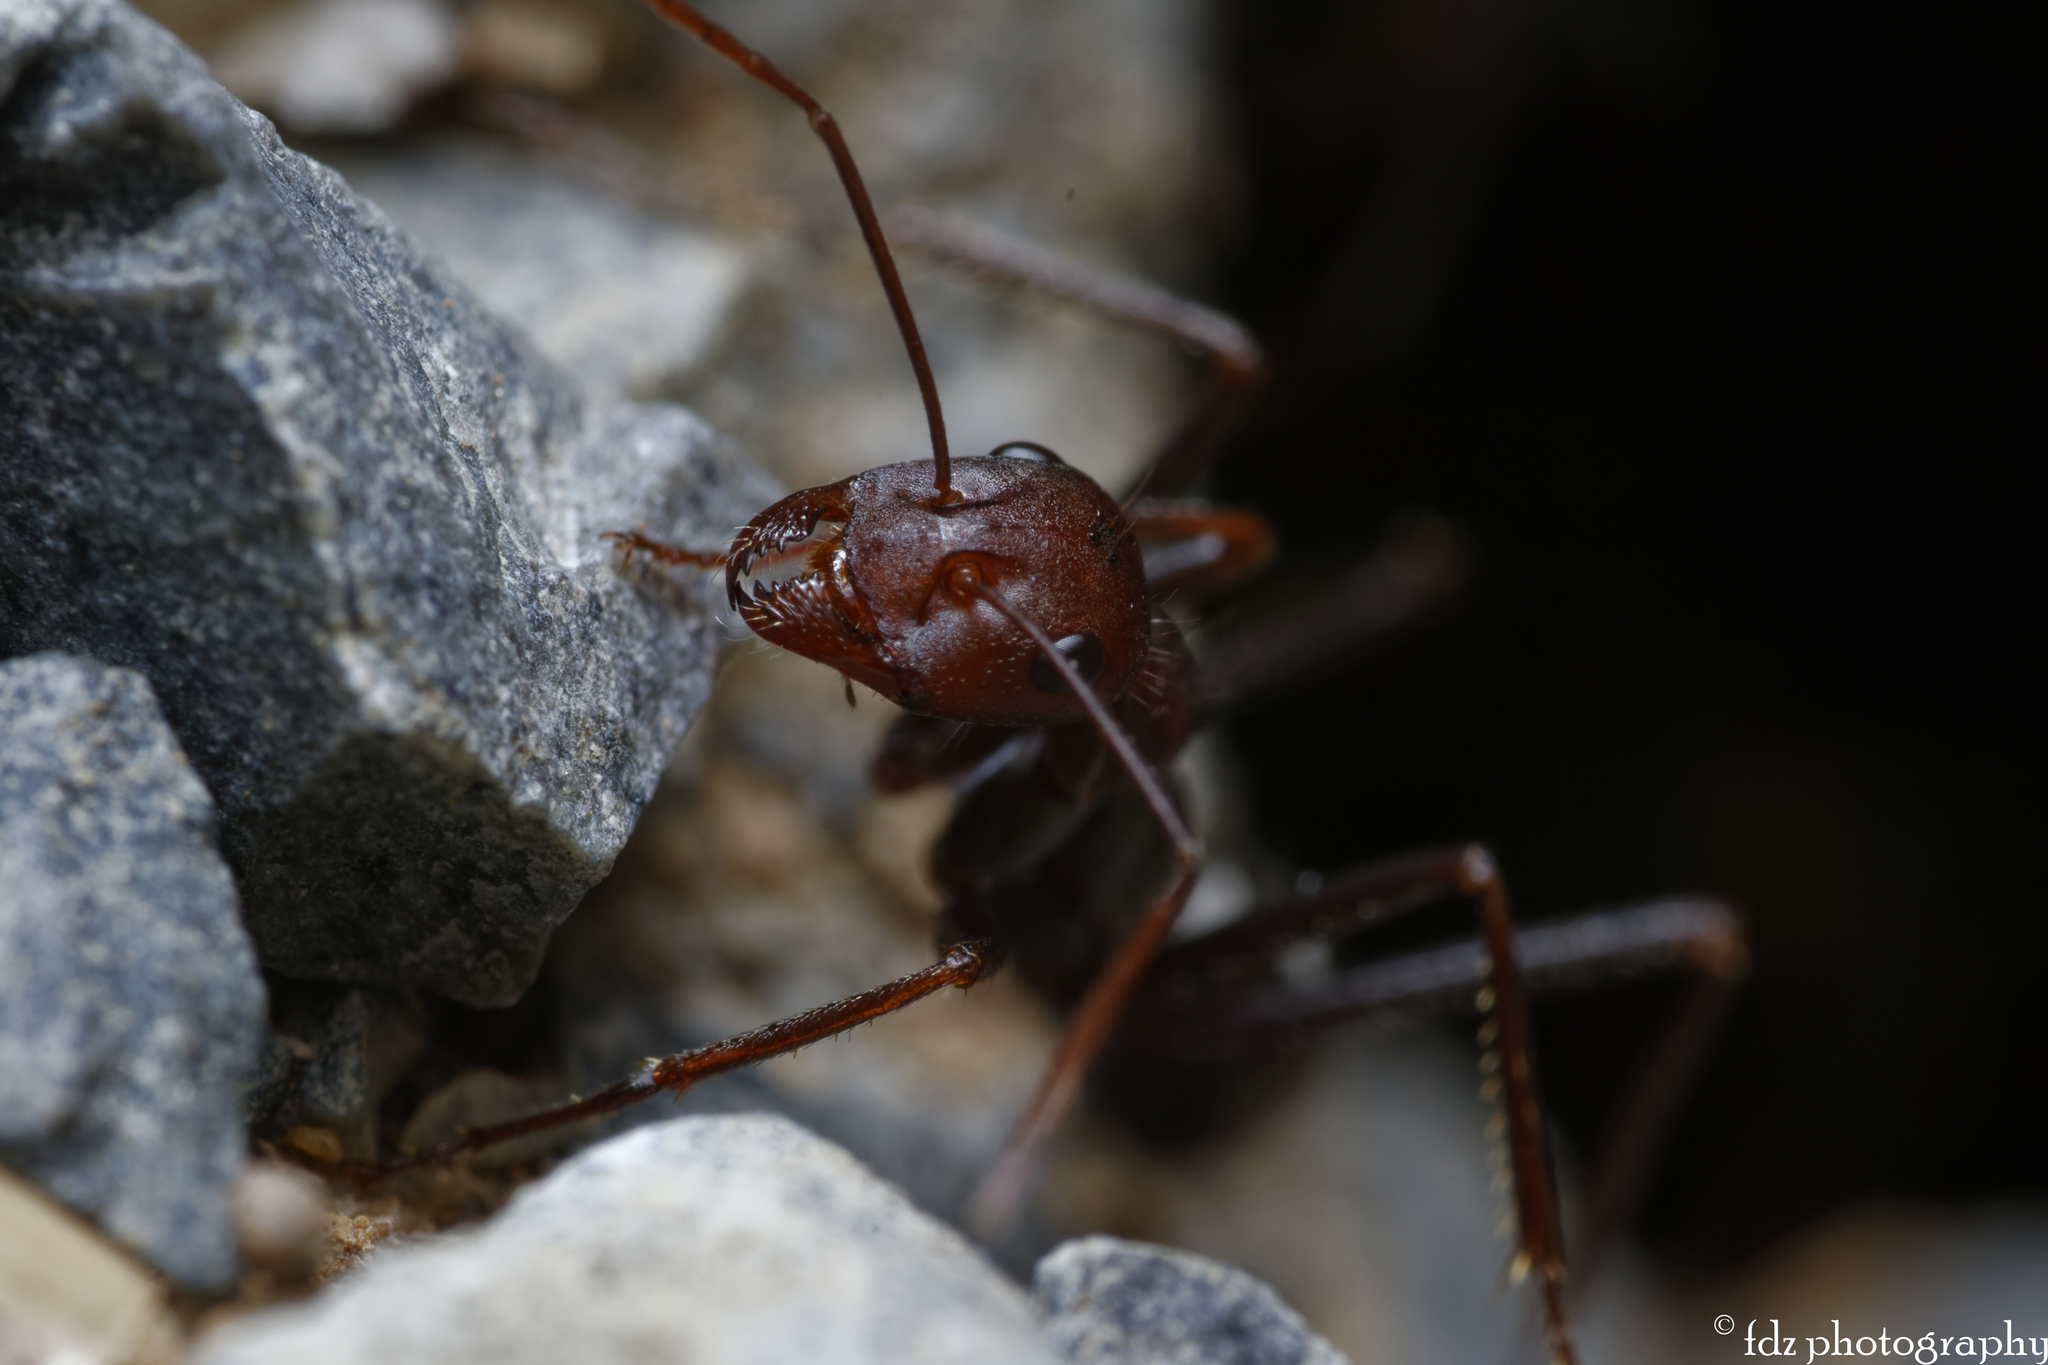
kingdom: Animalia
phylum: Arthropoda
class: Insecta
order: Hymenoptera
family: Formicidae
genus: Cataglyphis
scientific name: Cataglyphis hispanicus
